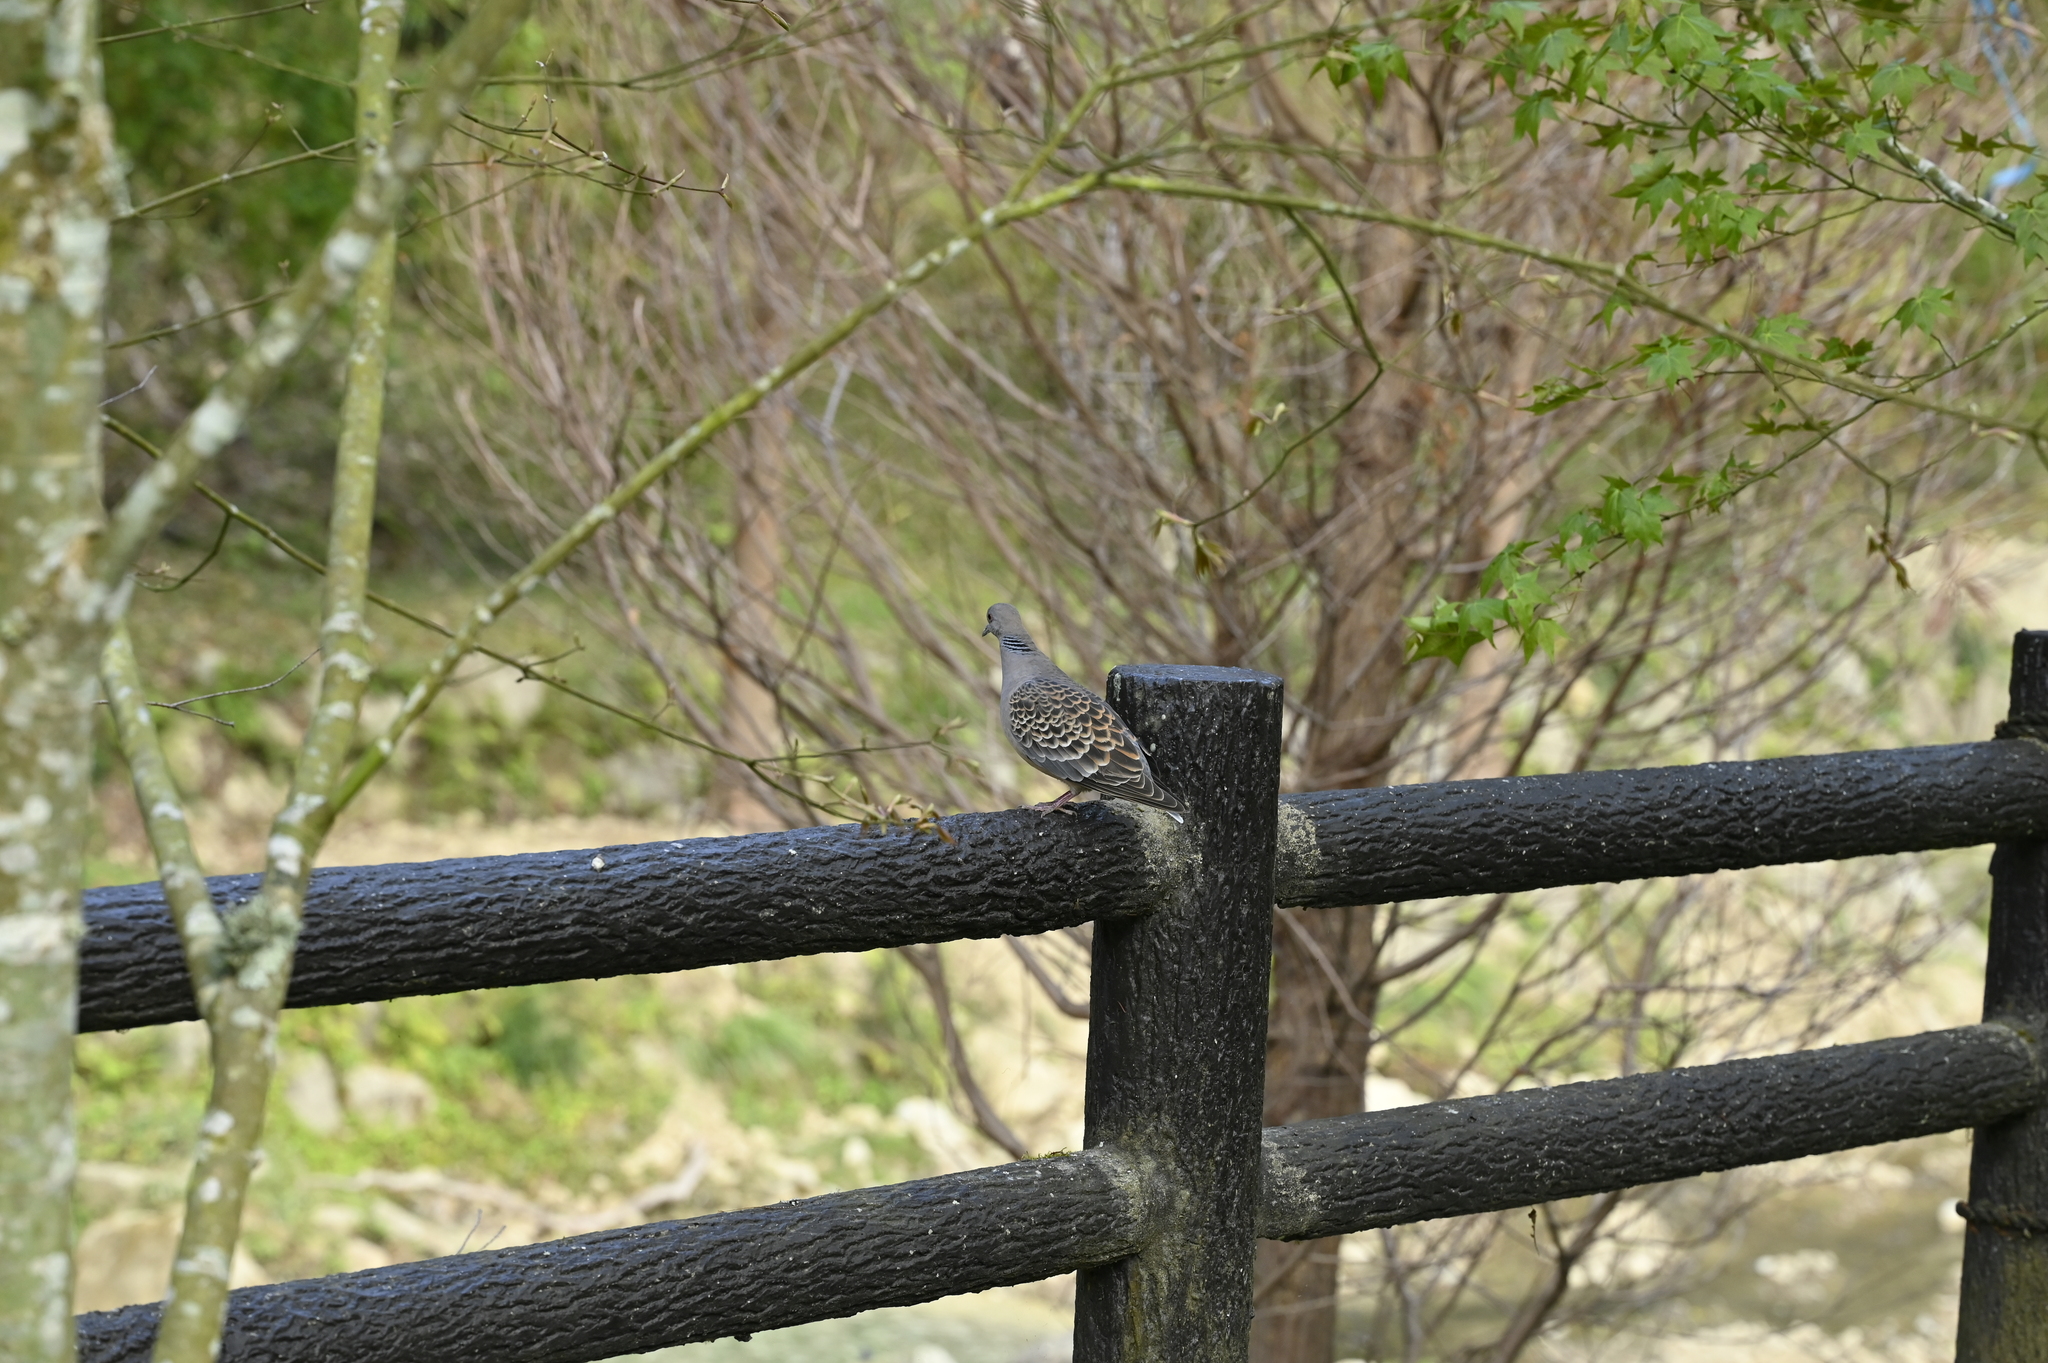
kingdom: Animalia
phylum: Chordata
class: Aves
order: Columbiformes
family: Columbidae
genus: Streptopelia
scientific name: Streptopelia orientalis
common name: Oriental turtle dove
